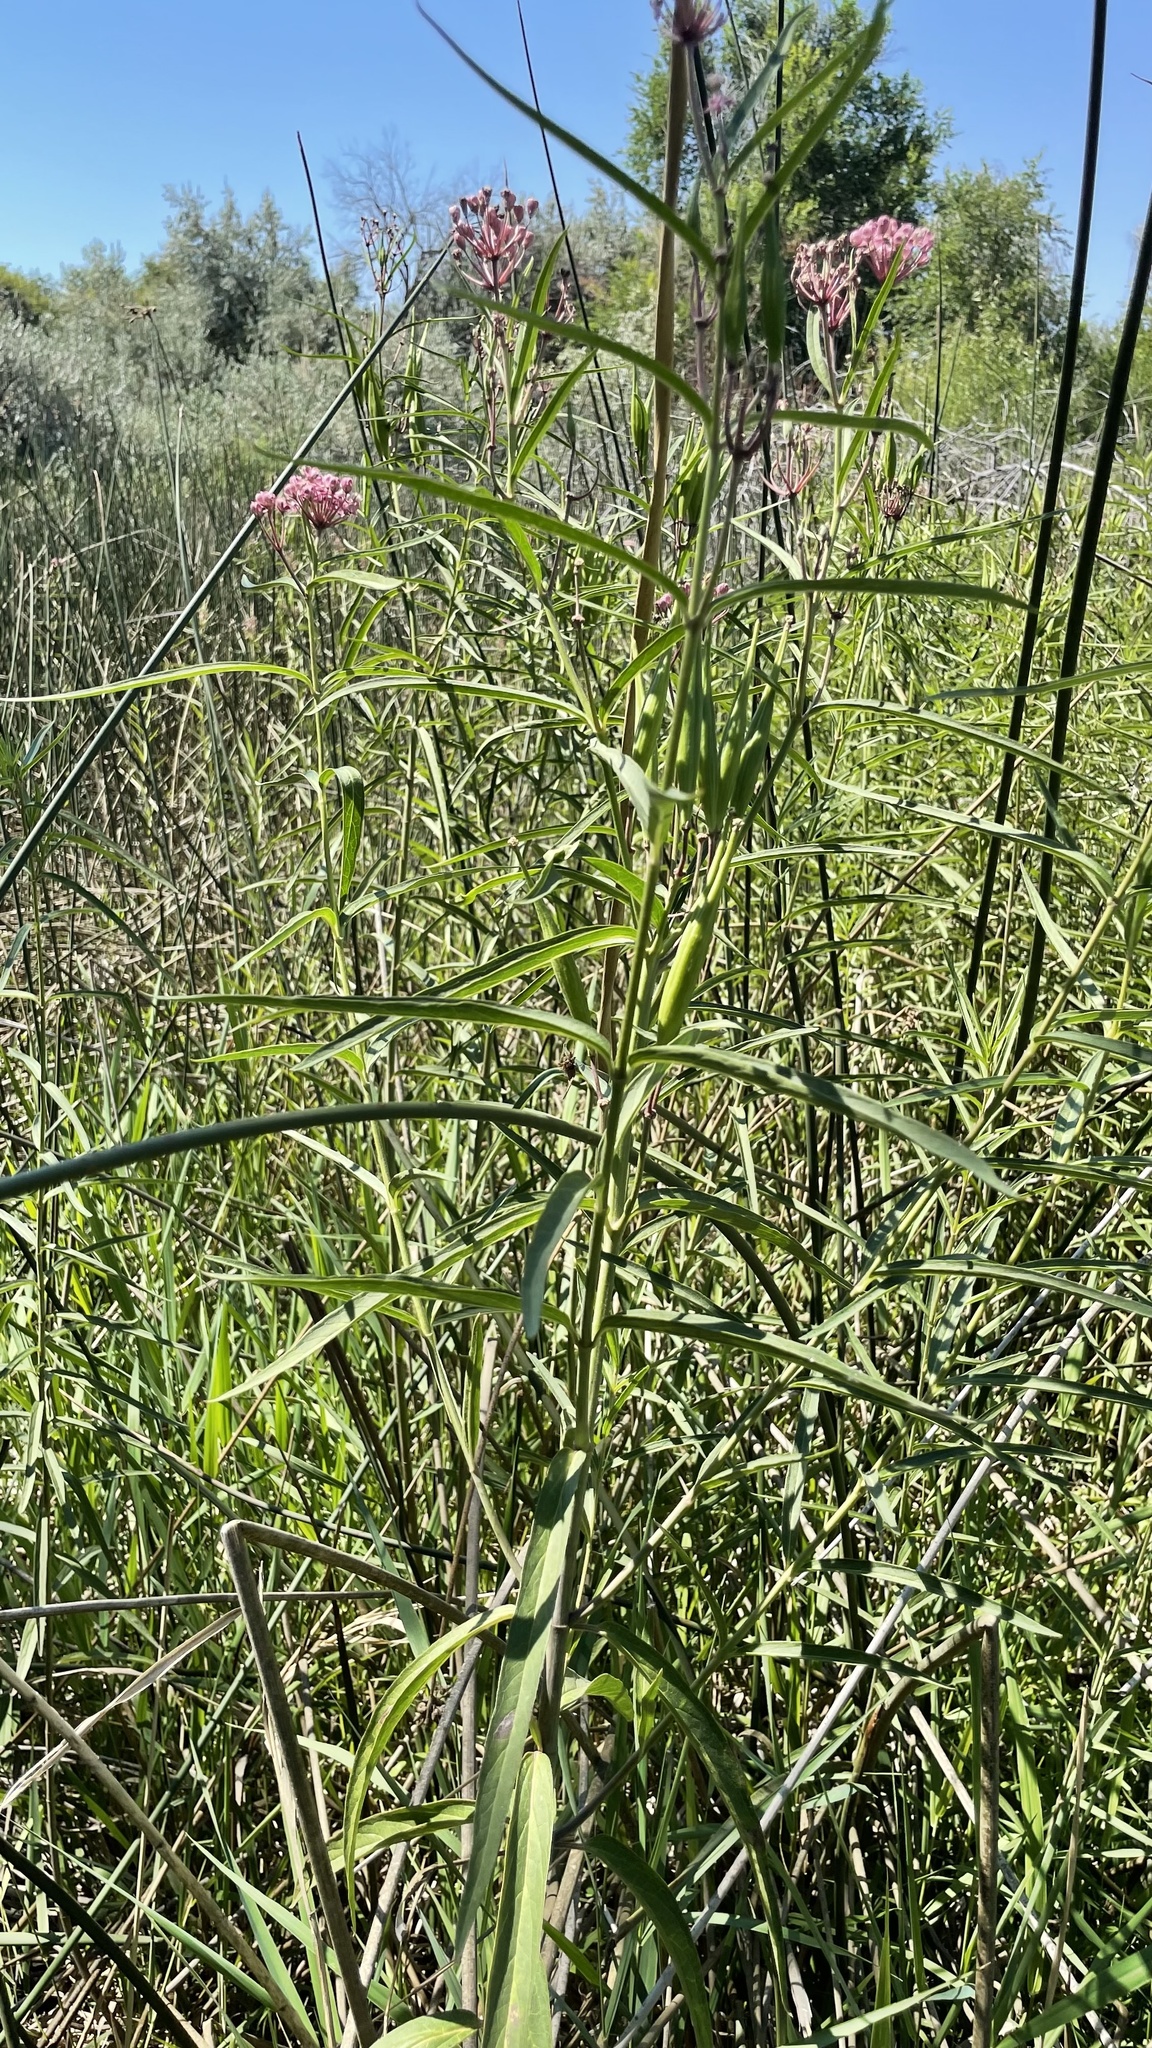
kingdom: Plantae
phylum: Tracheophyta
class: Magnoliopsida
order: Gentianales
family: Apocynaceae
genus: Asclepias
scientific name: Asclepias incarnata
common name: Swamp milkweed
